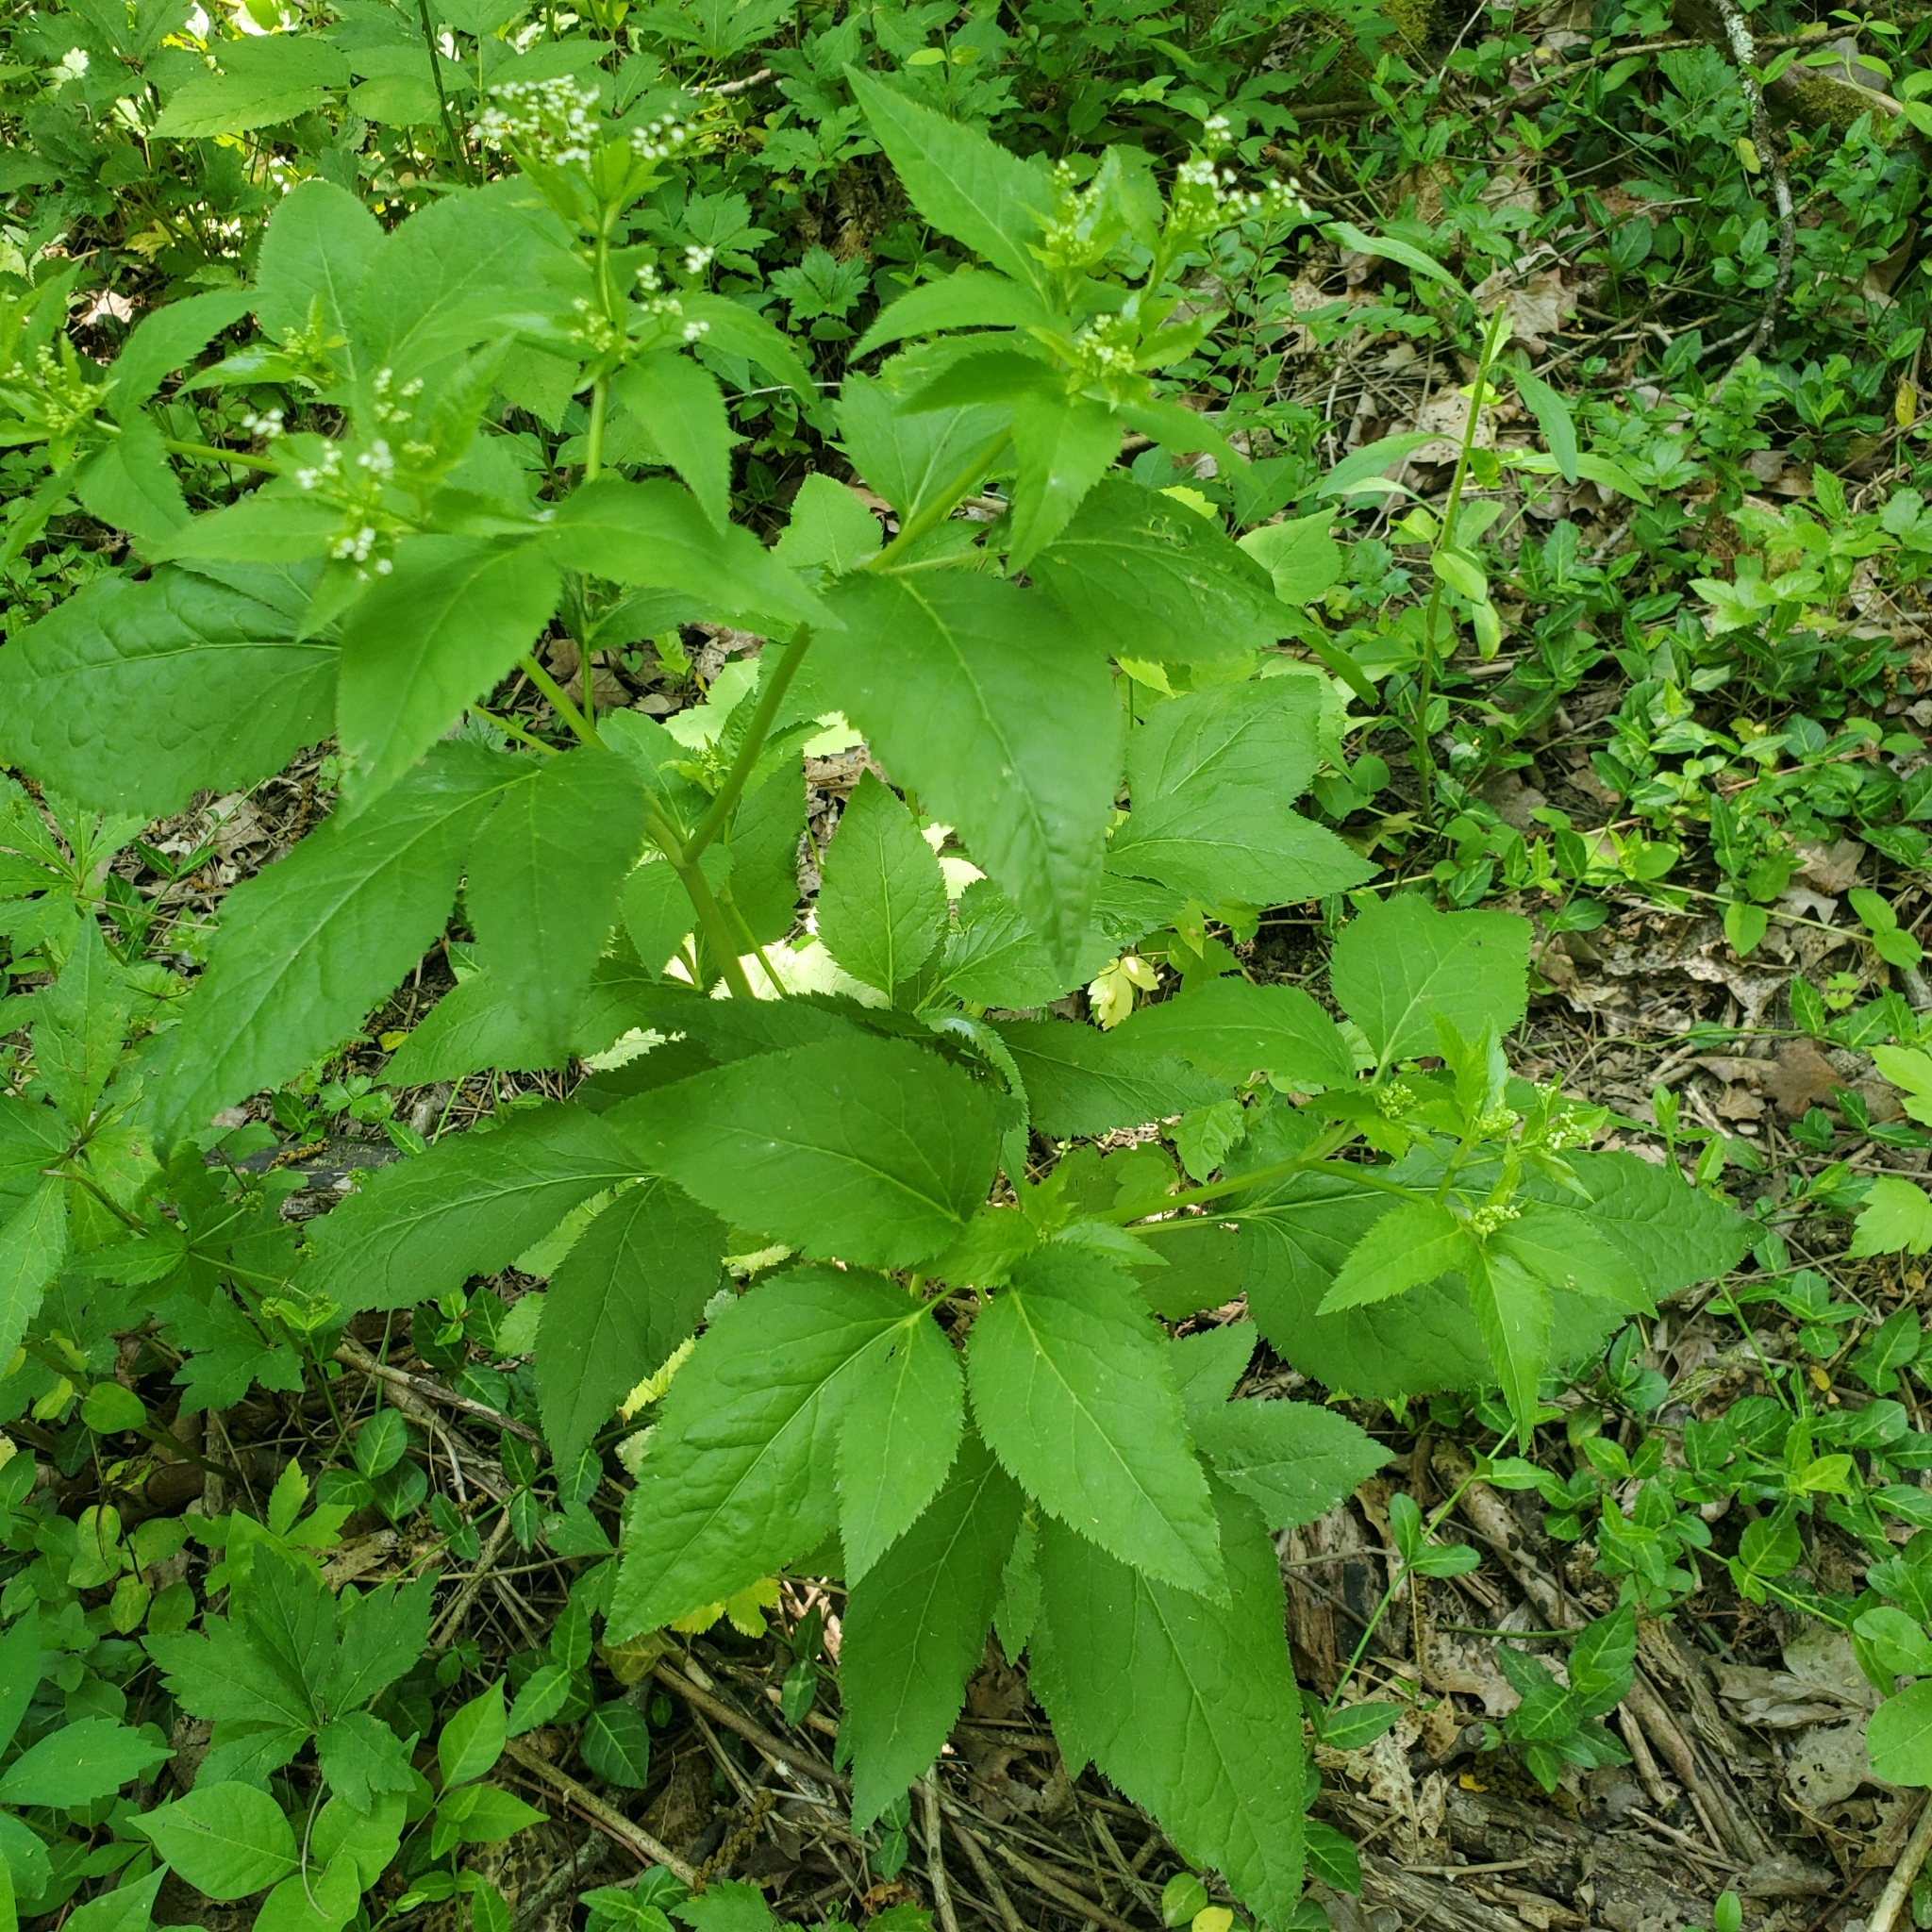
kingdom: Plantae
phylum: Tracheophyta
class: Magnoliopsida
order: Apiales
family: Apiaceae
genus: Cryptotaenia
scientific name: Cryptotaenia canadensis
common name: Honewort
